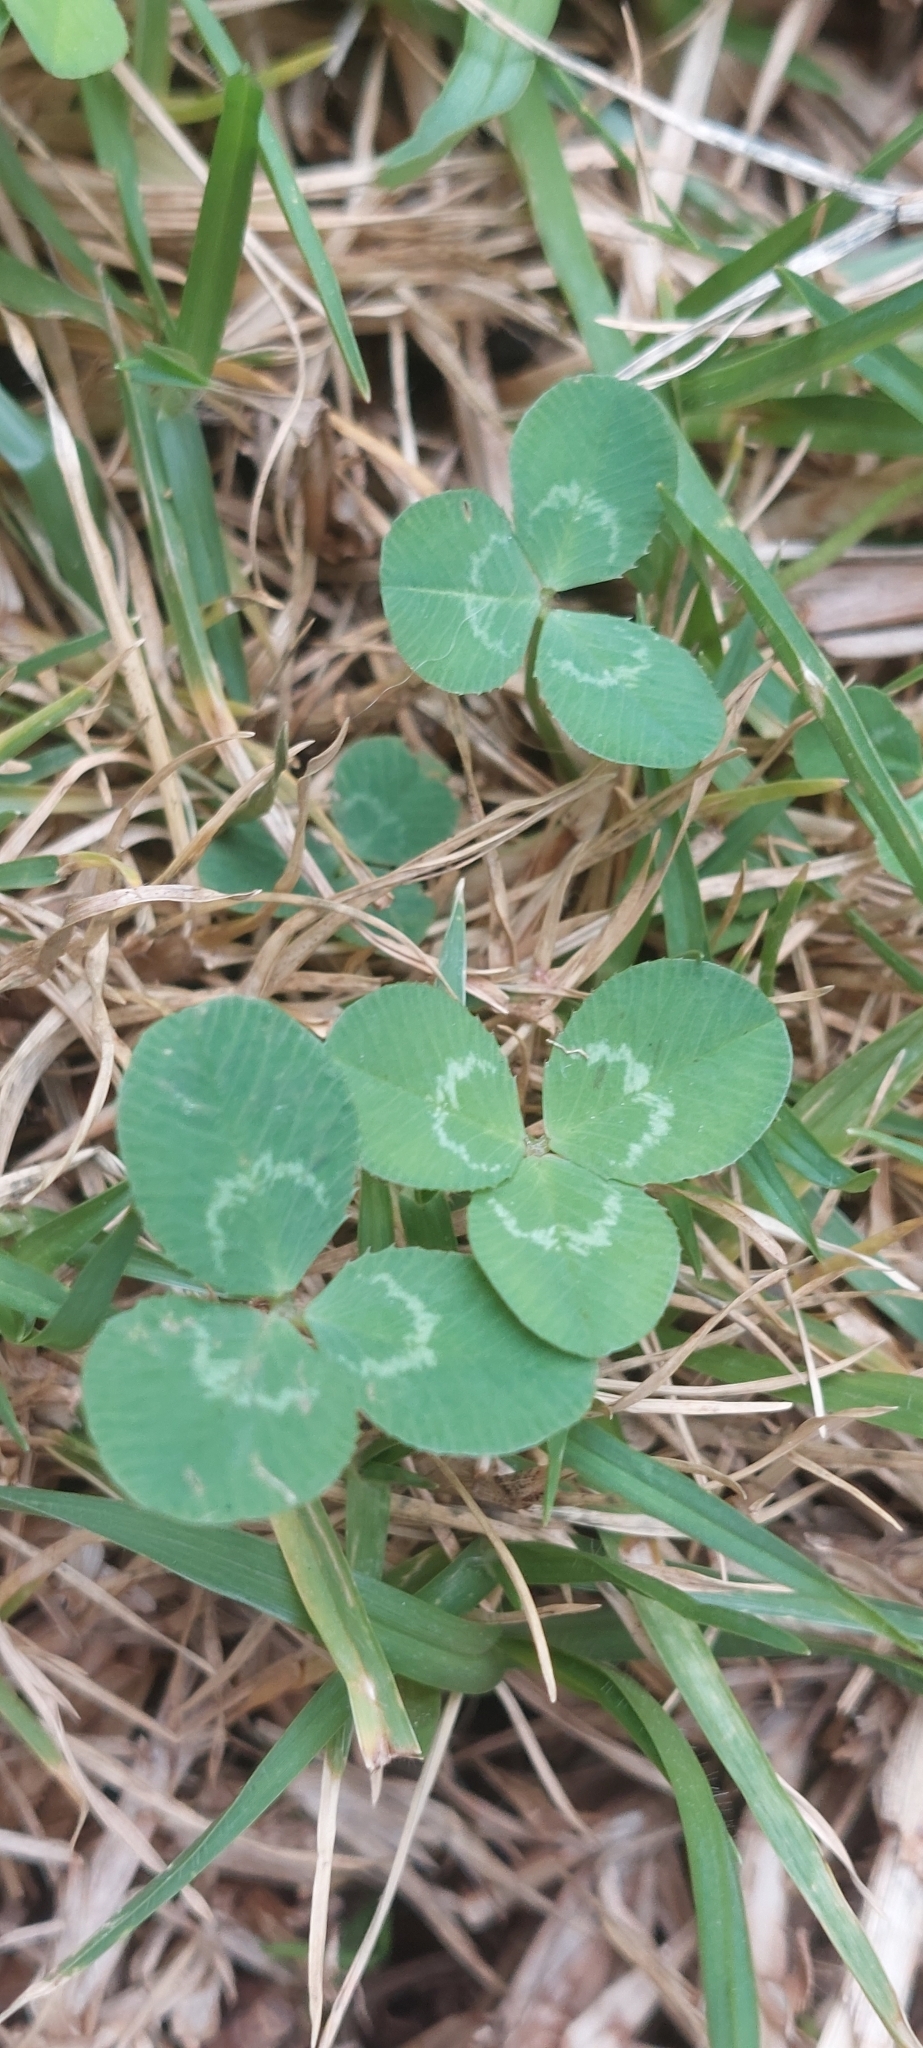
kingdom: Plantae
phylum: Tracheophyta
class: Magnoliopsida
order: Fabales
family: Fabaceae
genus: Trifolium
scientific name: Trifolium repens
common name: White clover
